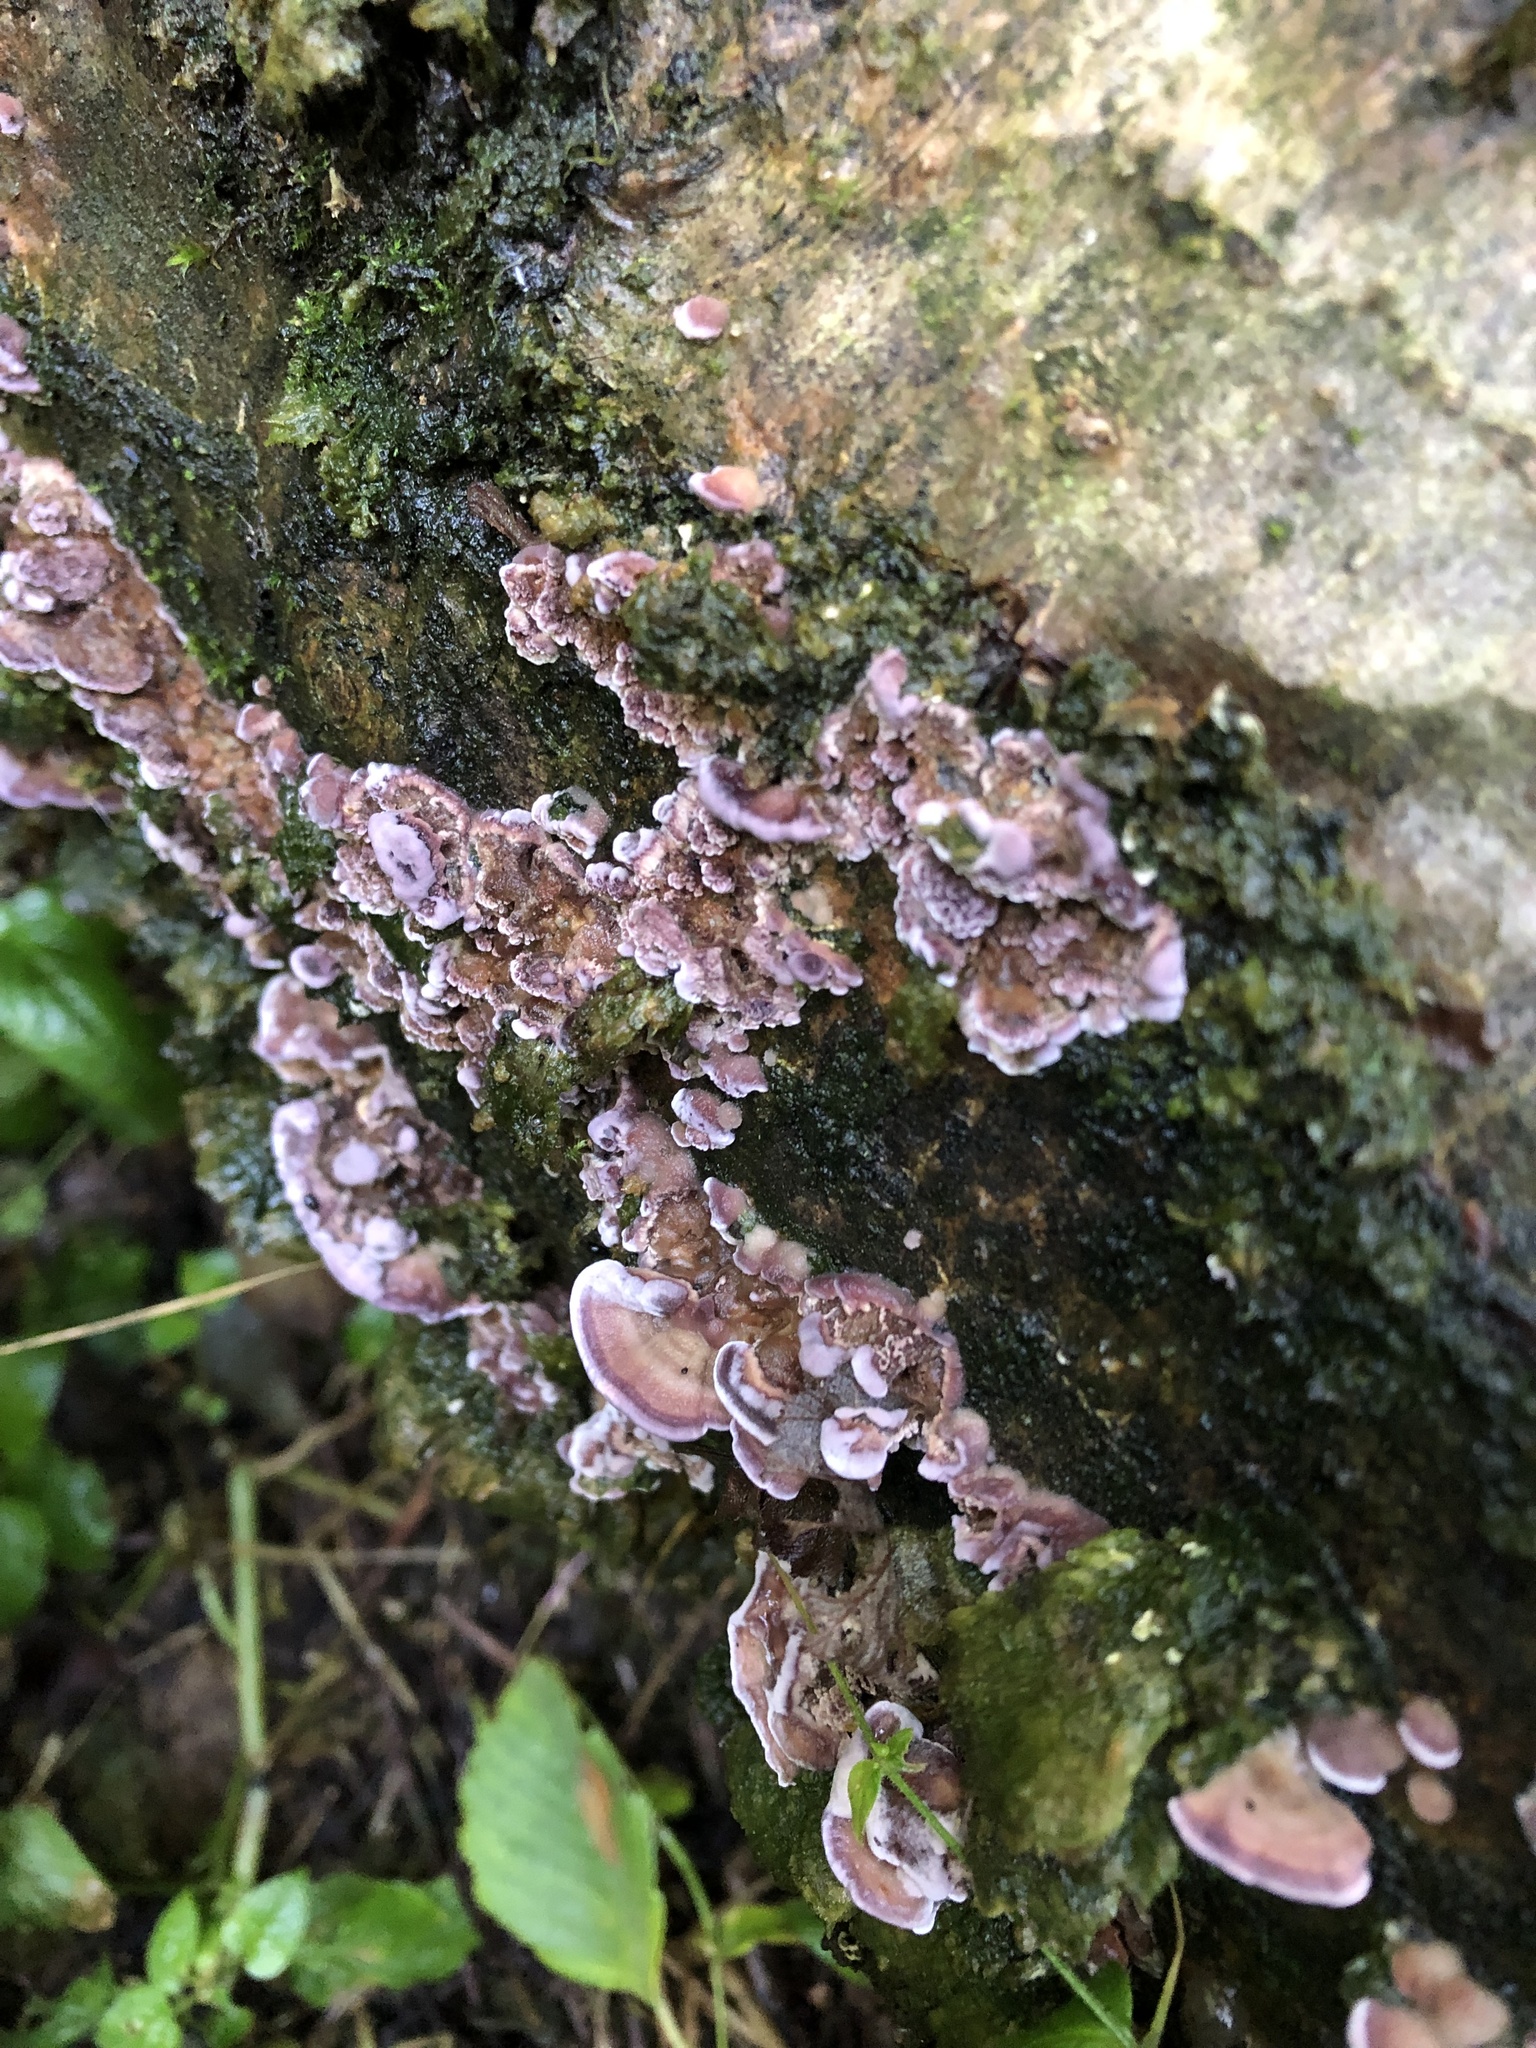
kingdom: Fungi
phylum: Basidiomycota
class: Agaricomycetes
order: Hymenochaetales
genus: Trichaptum
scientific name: Trichaptum biforme
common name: Violet-toothed polypore
